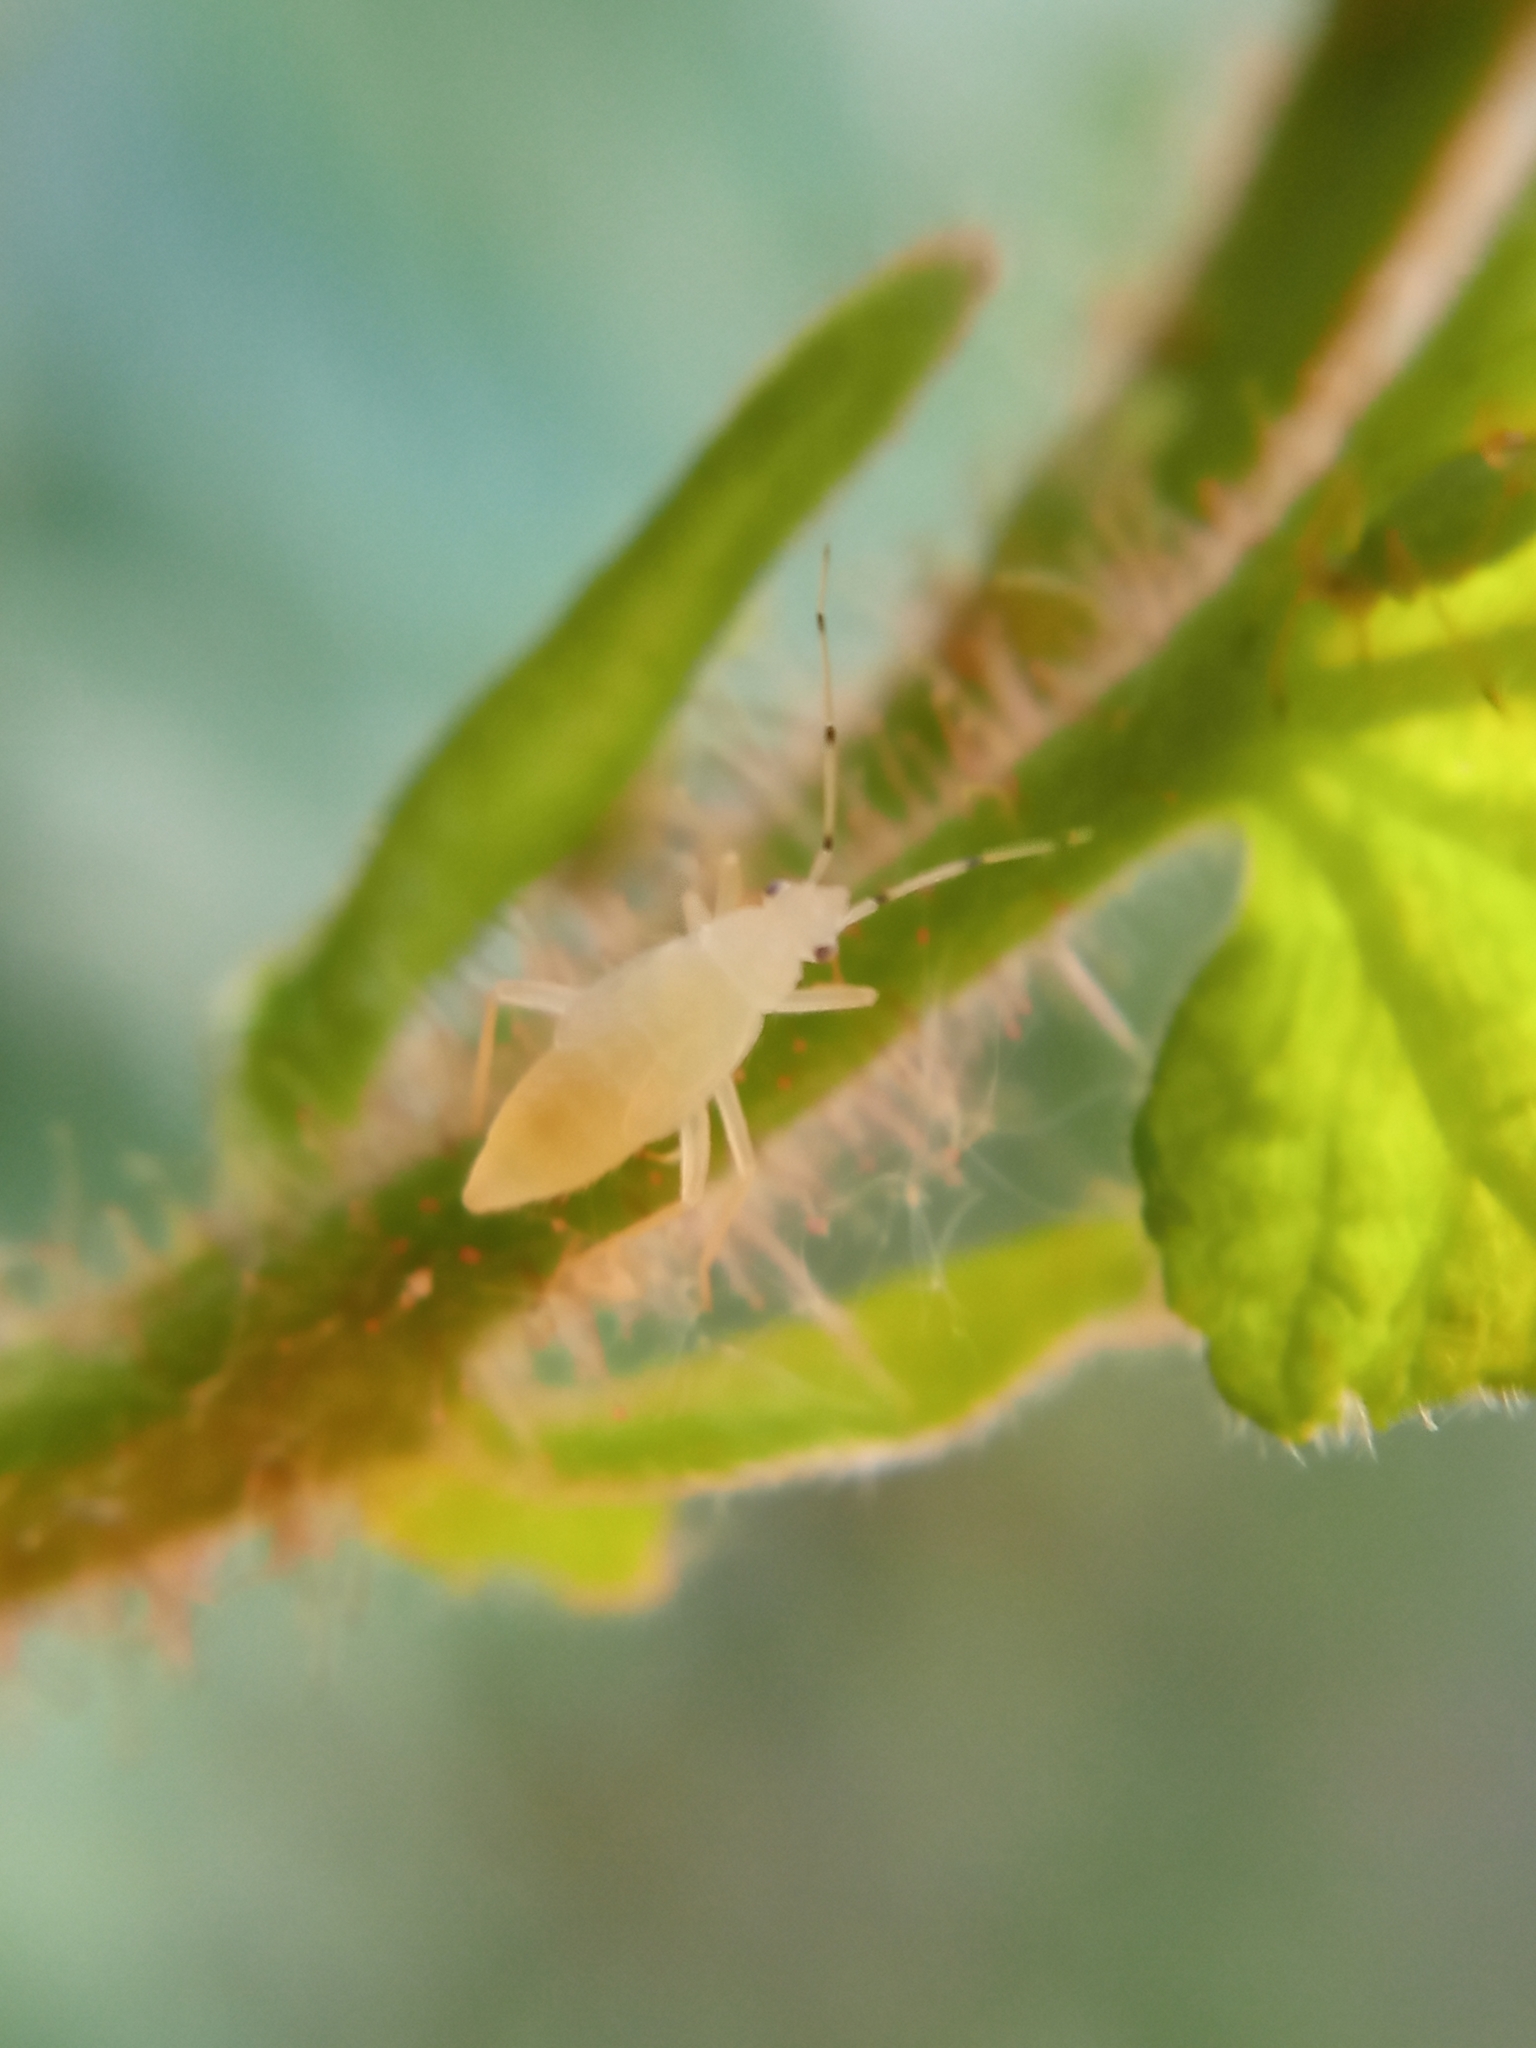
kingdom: Animalia
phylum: Arthropoda
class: Insecta
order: Hemiptera
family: Miridae
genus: Phylus
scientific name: Phylus coryli
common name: Plant bug
